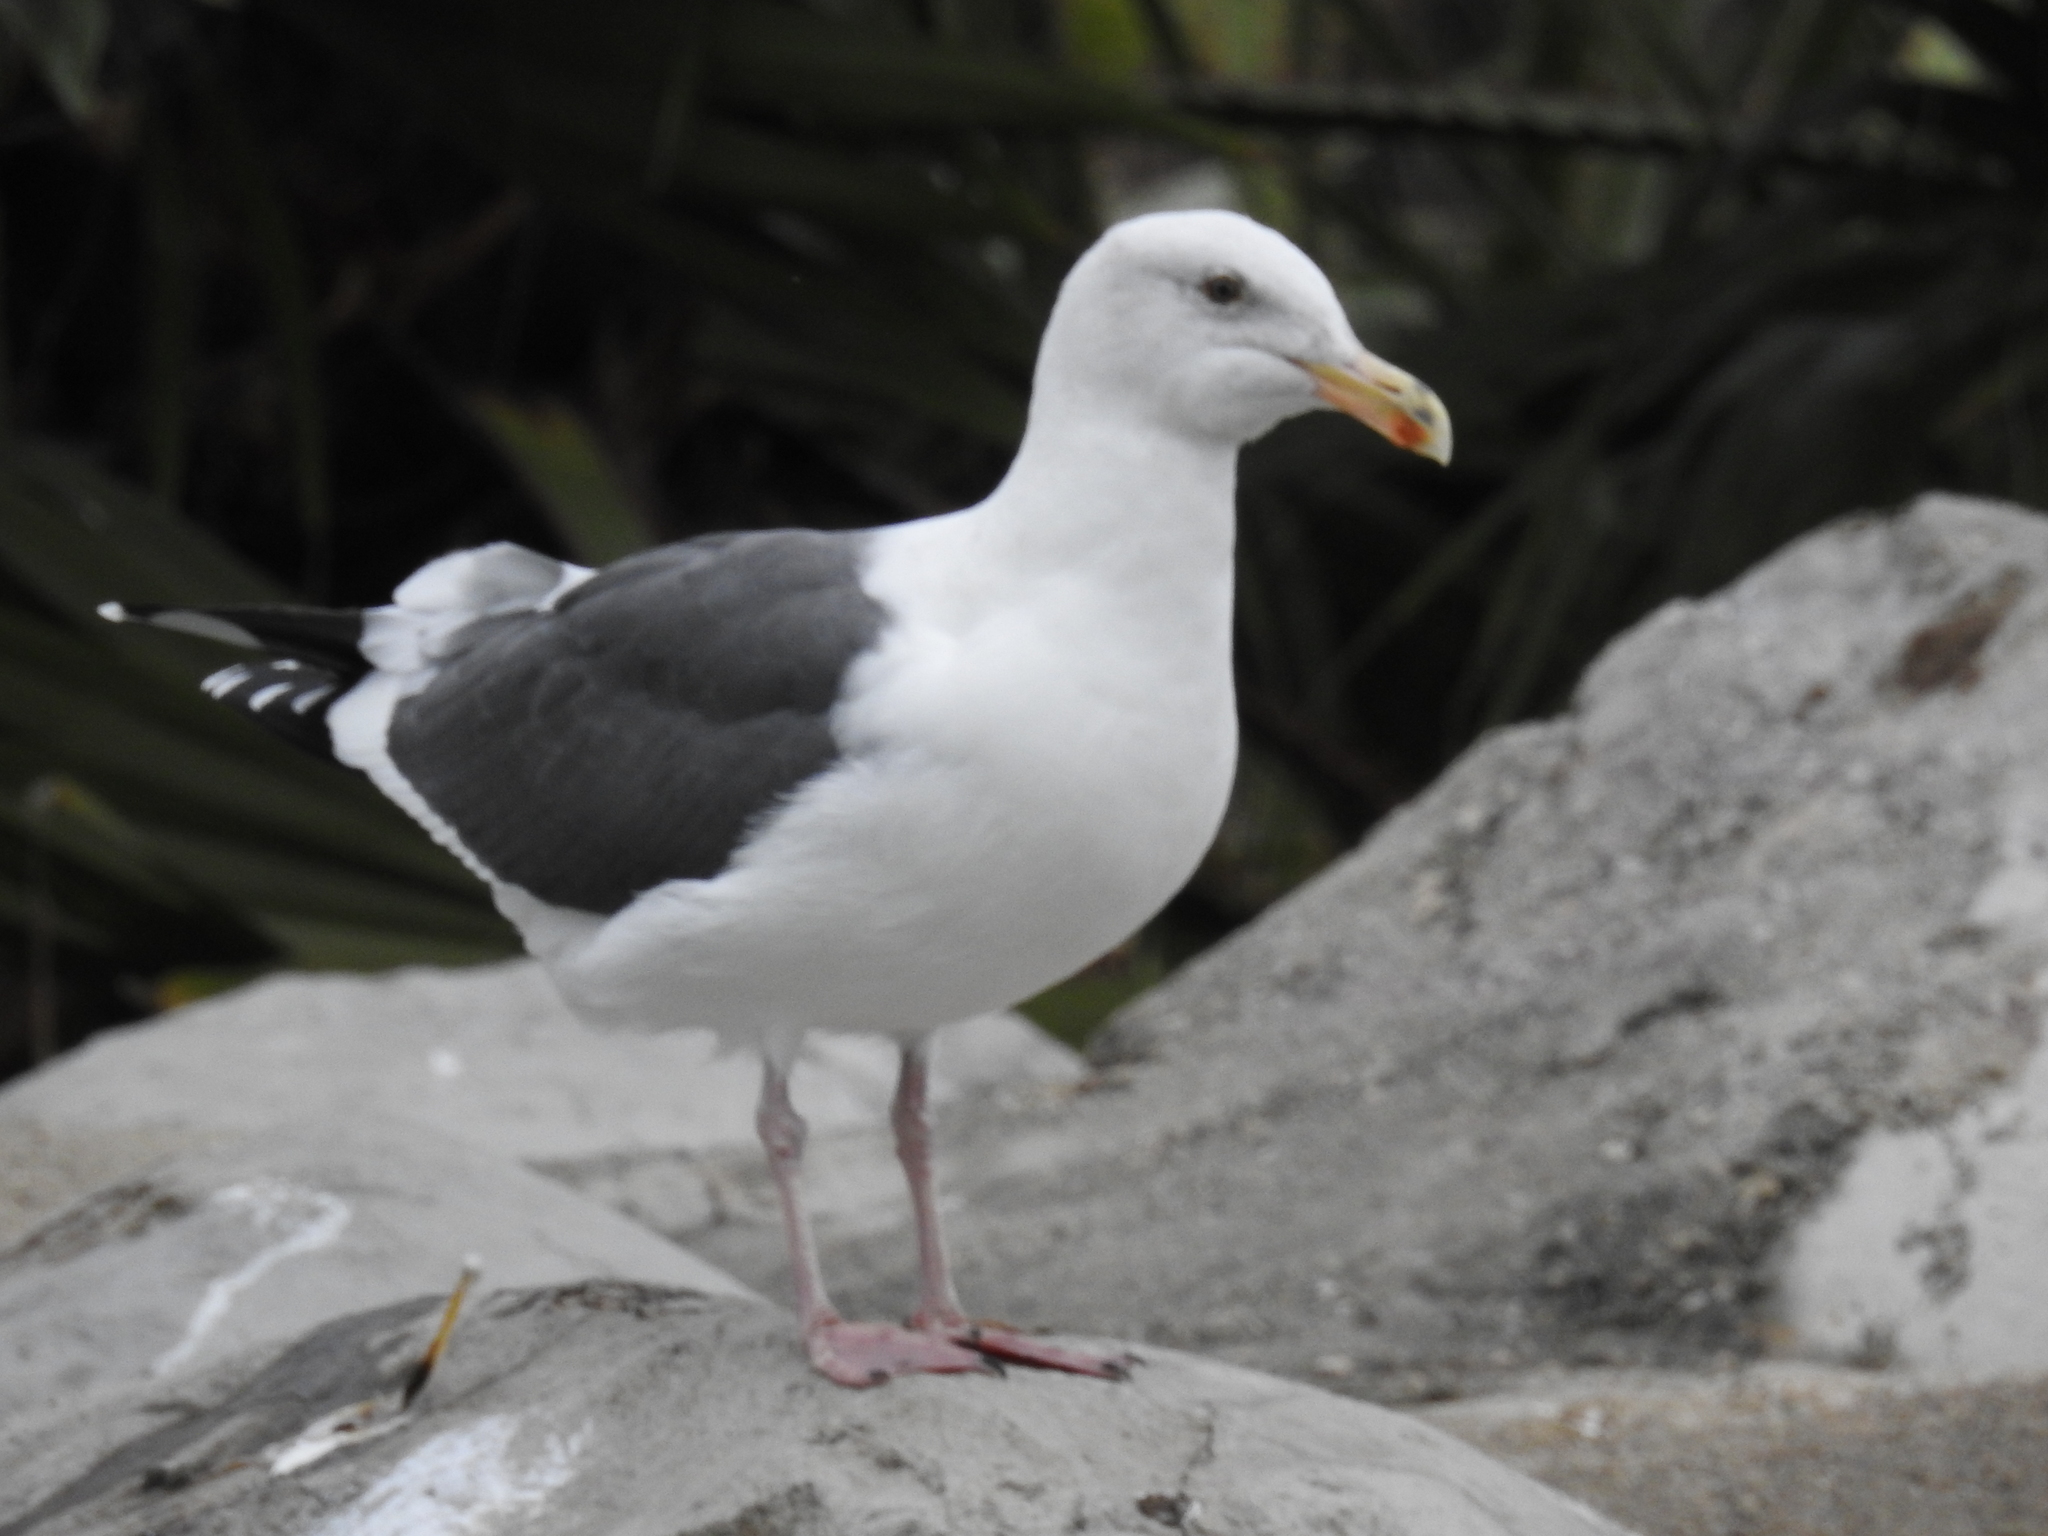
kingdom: Animalia
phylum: Chordata
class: Aves
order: Charadriiformes
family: Laridae
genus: Larus
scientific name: Larus occidentalis
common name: Western gull
